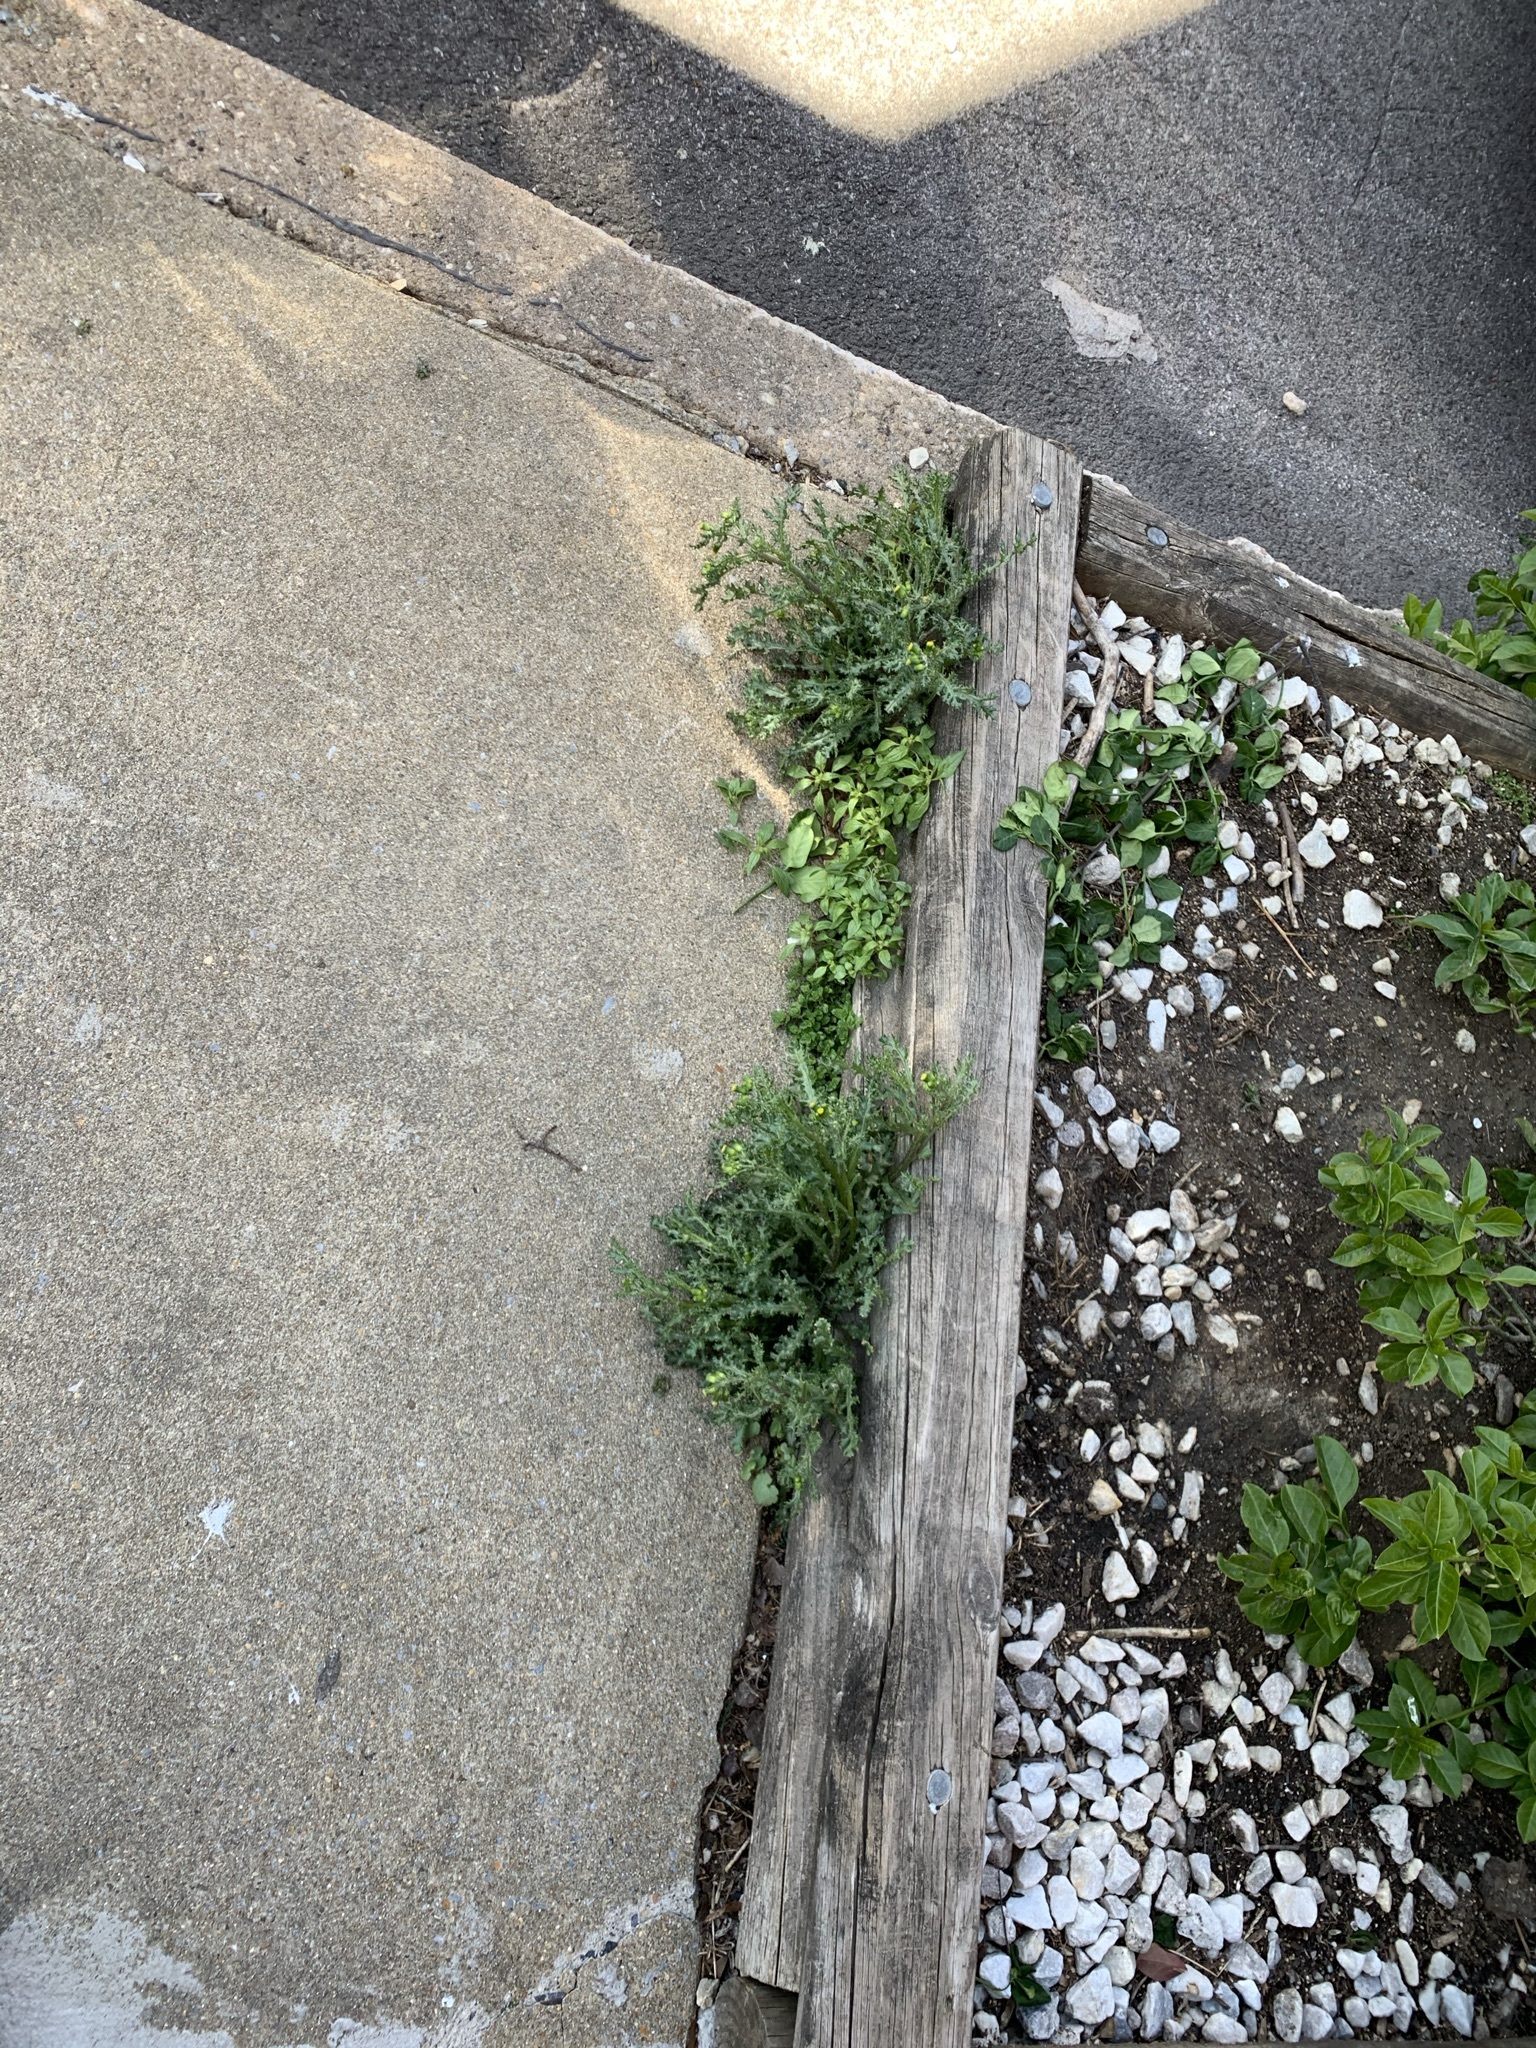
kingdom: Plantae
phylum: Tracheophyta
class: Magnoliopsida
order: Asterales
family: Asteraceae
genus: Senecio
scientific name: Senecio vulgaris
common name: Old-man-in-the-spring
